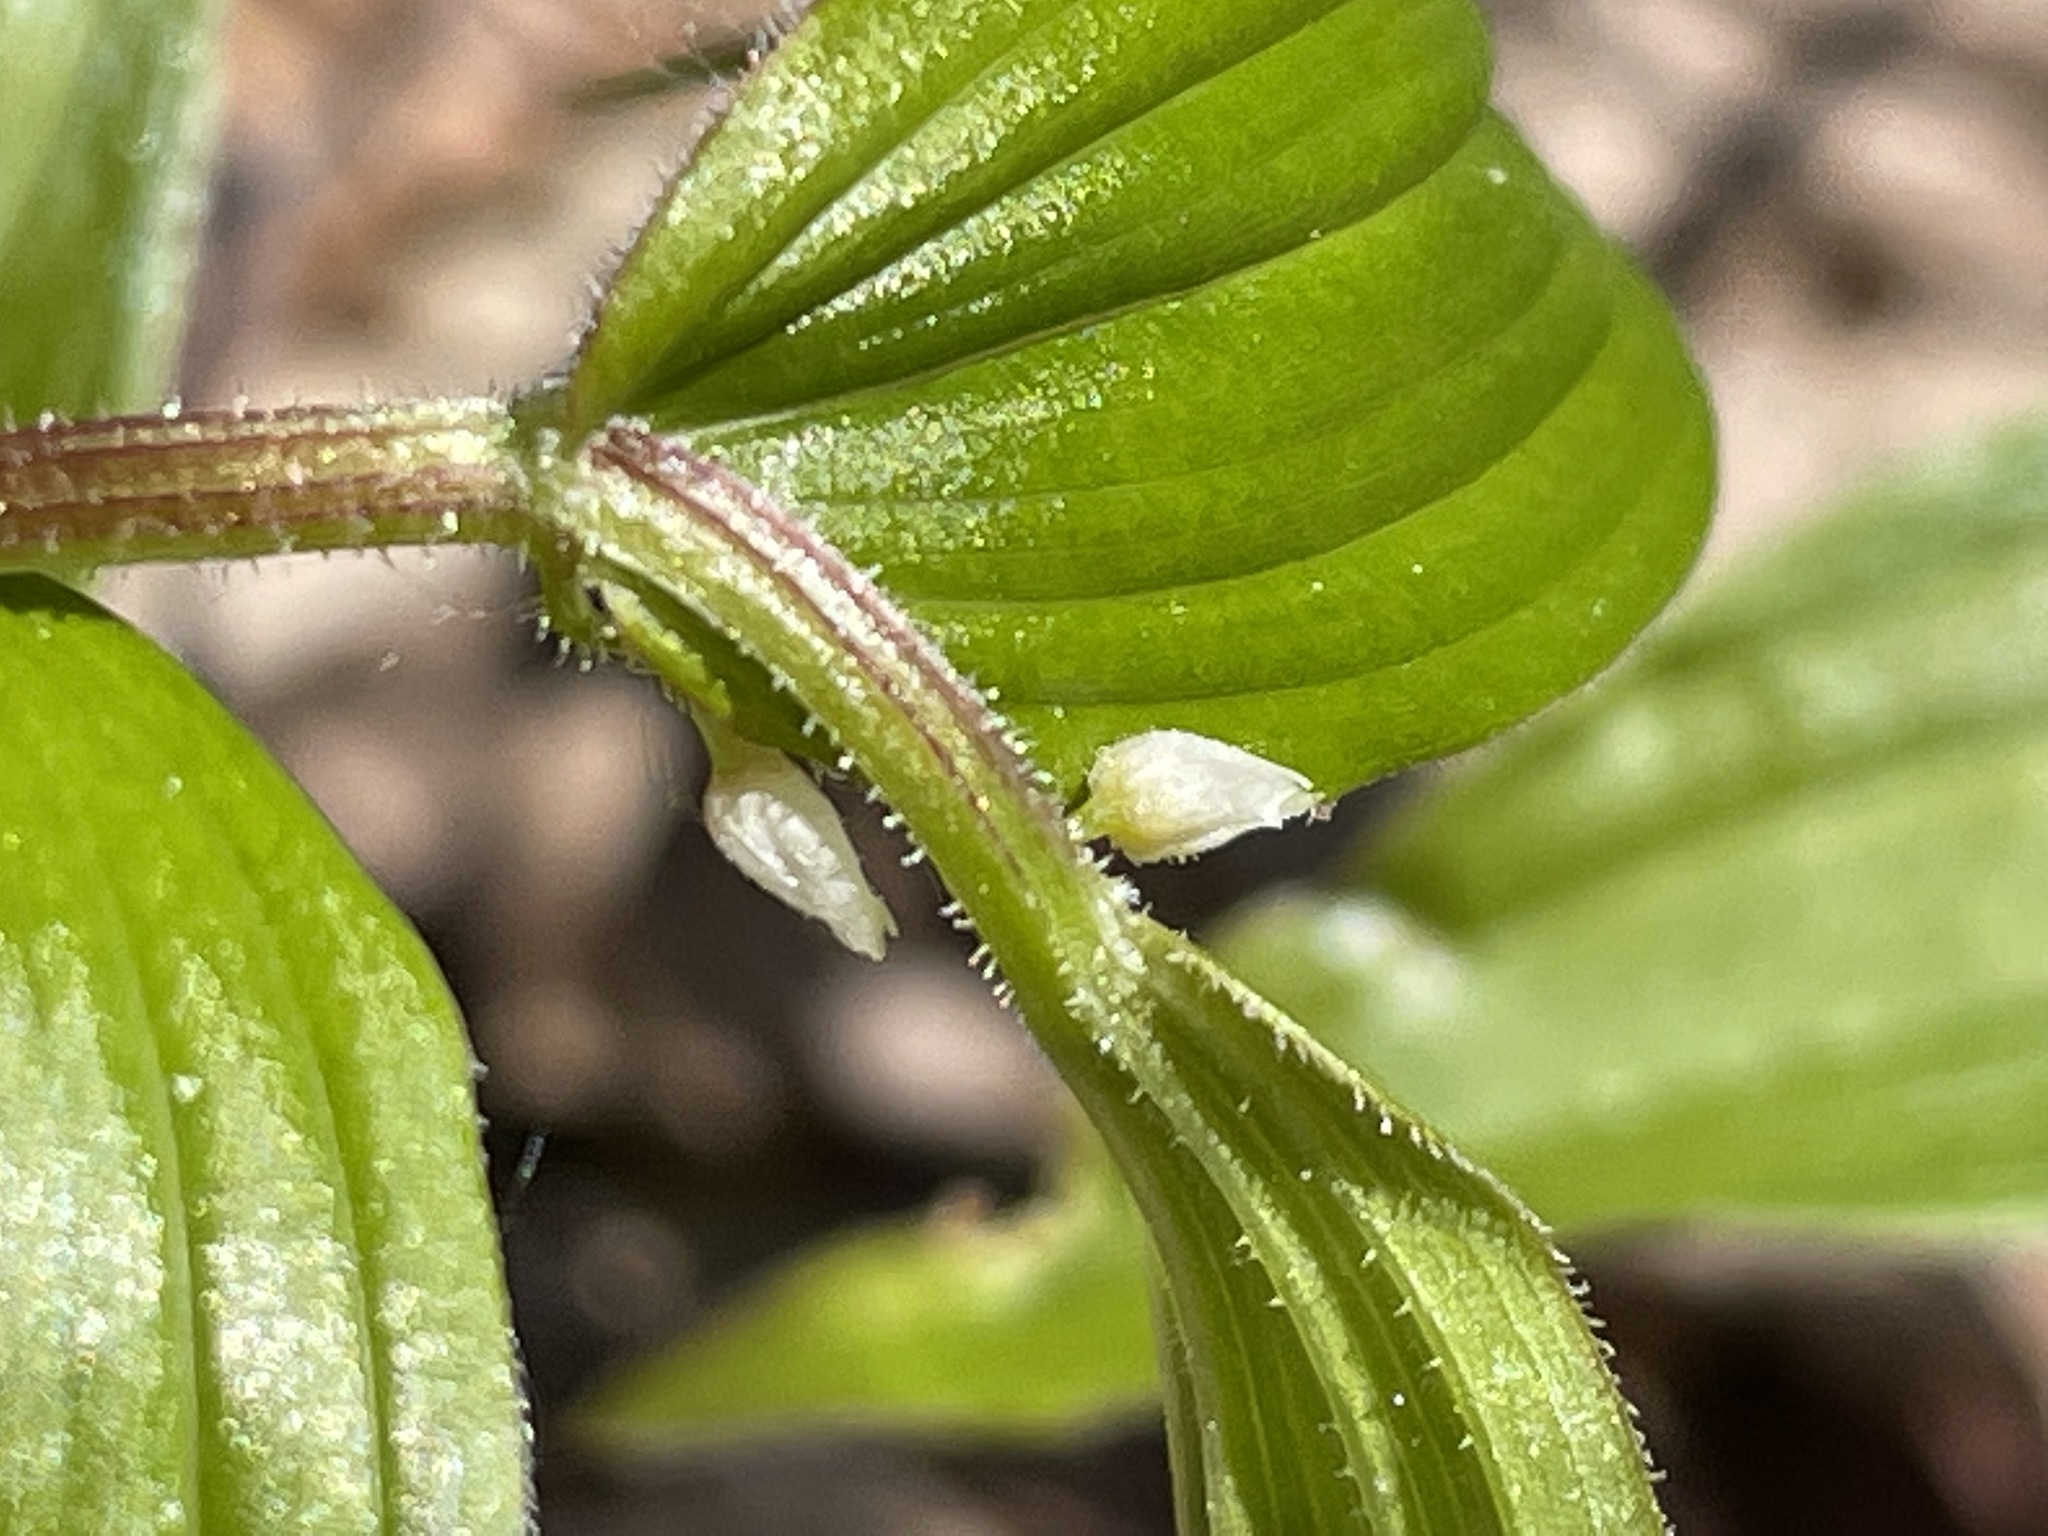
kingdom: Plantae
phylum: Tracheophyta
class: Liliopsida
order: Liliales
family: Liliaceae
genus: Streptopus
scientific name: Streptopus lanceolatus
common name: Rose mandarin
